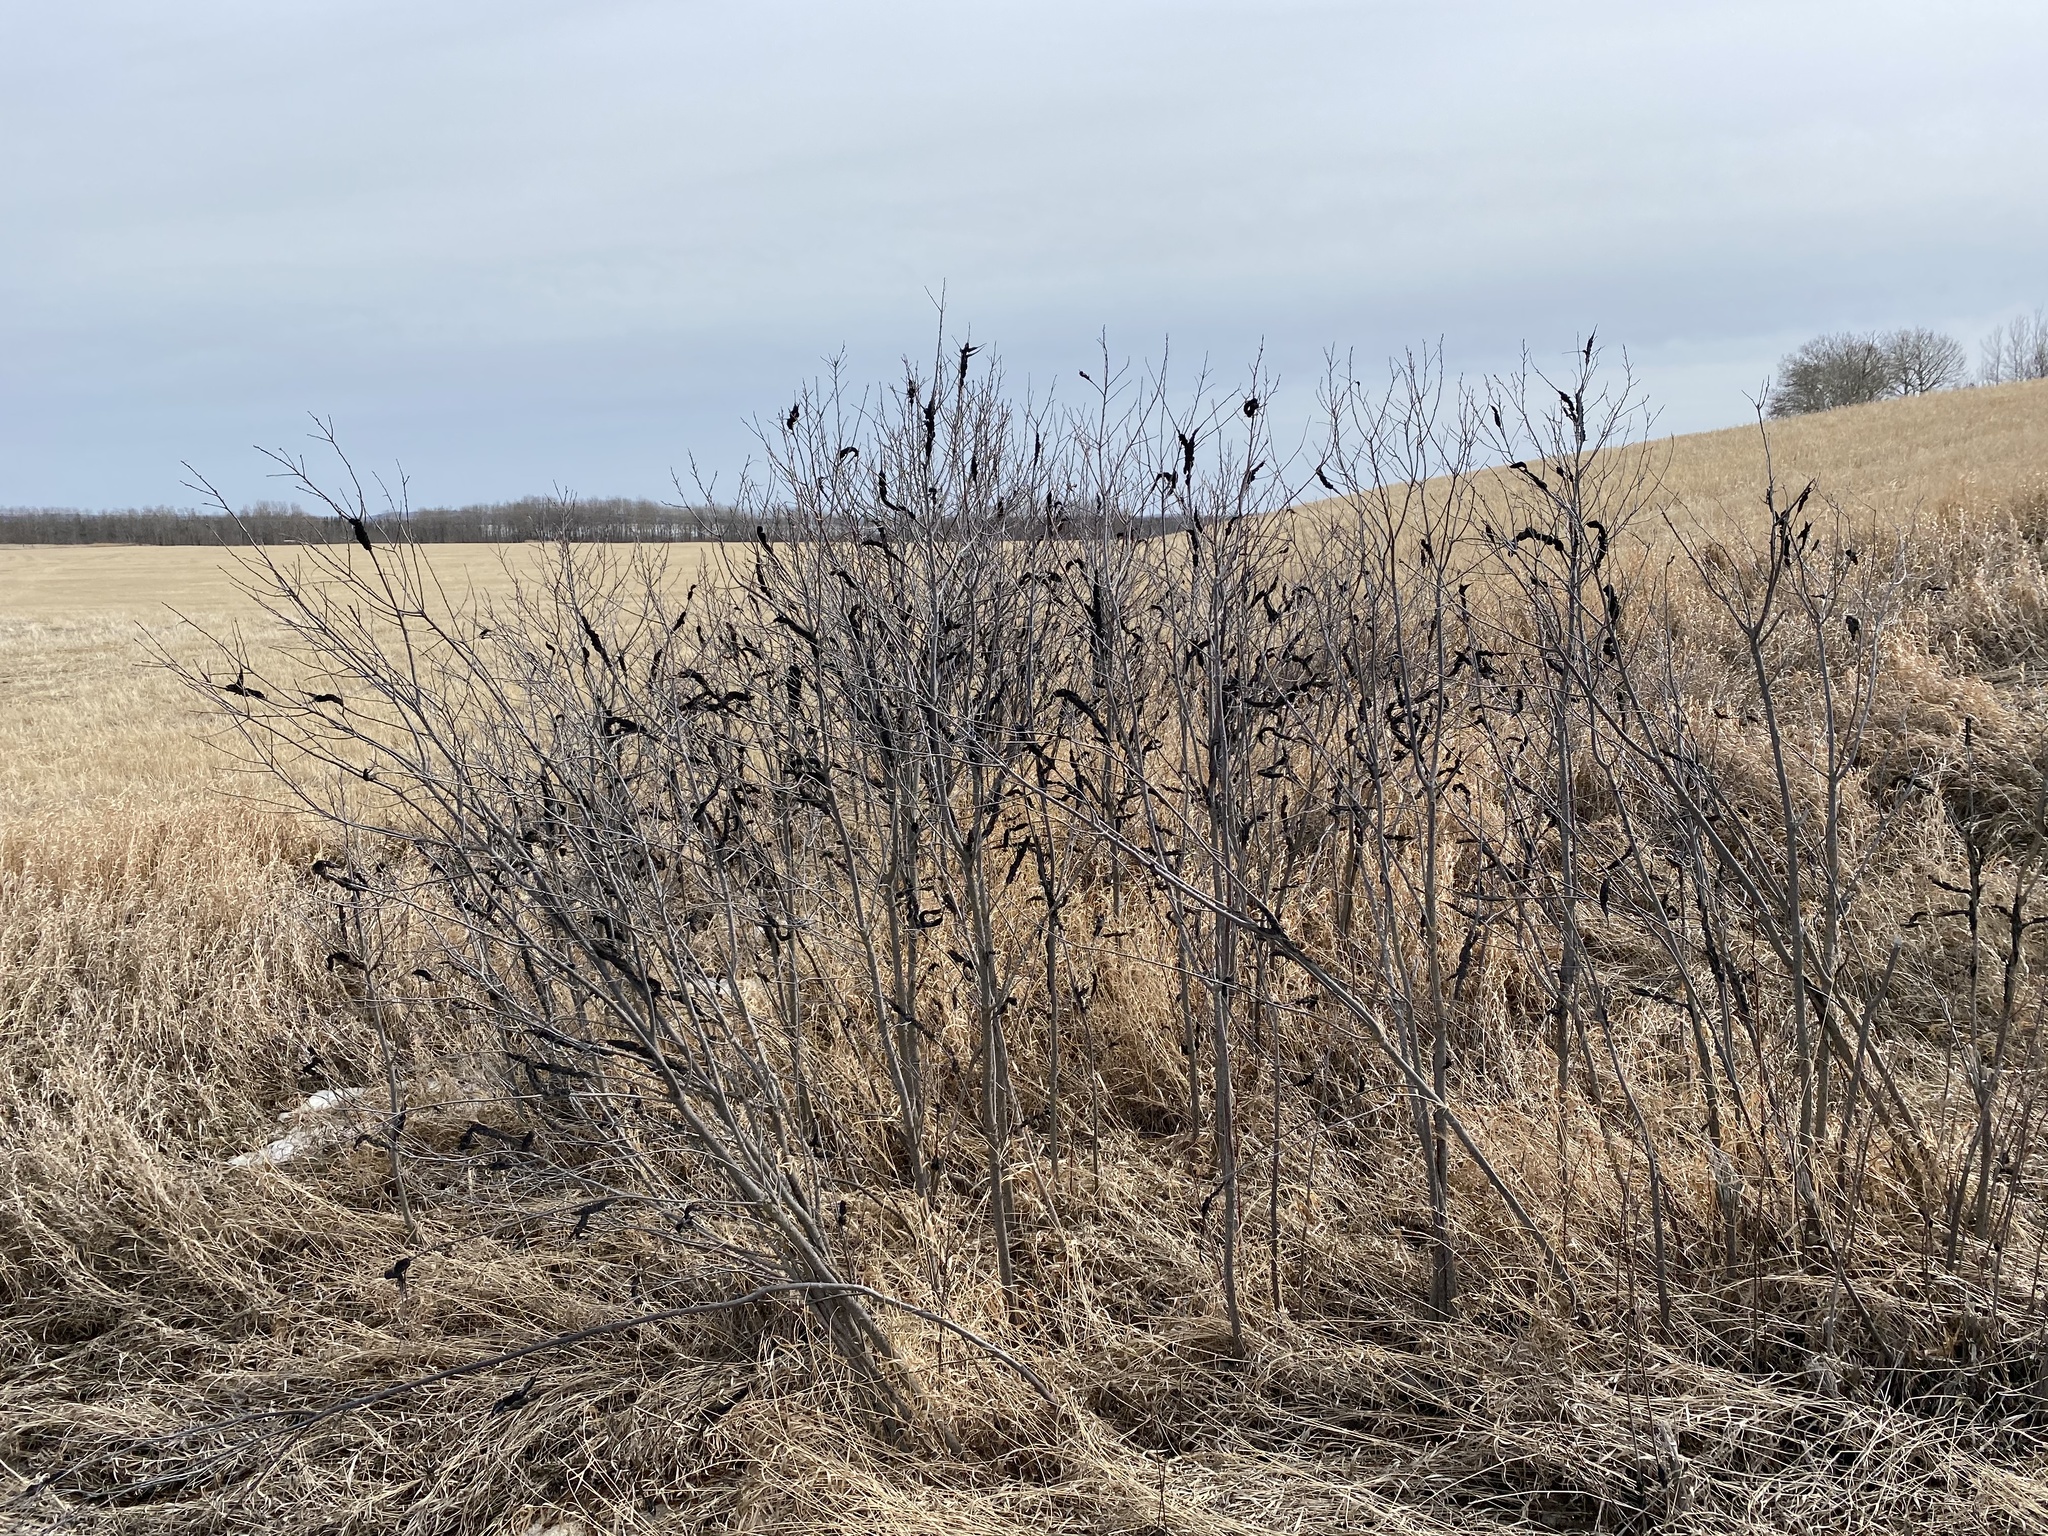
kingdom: Fungi
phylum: Ascomycota
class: Dothideomycetes
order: Venturiales
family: Venturiaceae
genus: Apiosporina
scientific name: Apiosporina morbosa
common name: Black knot
